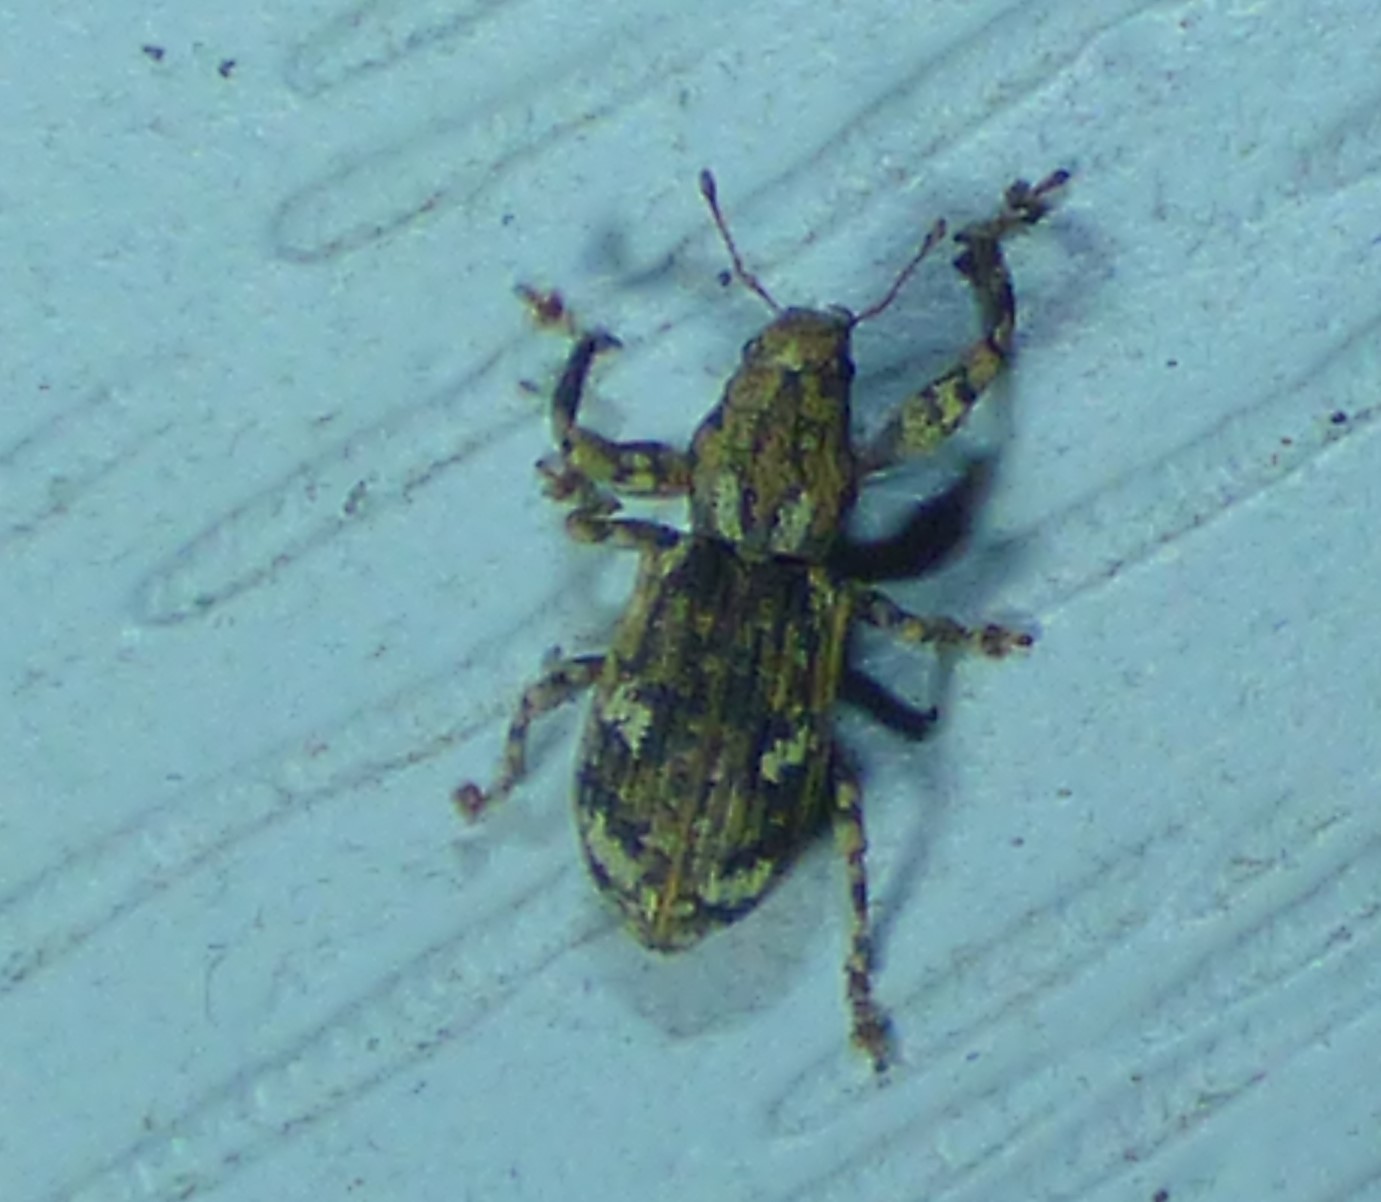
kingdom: Animalia
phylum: Arthropoda
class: Insecta
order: Coleoptera
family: Curculionidae
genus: Pandeleteius
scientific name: Pandeleteius hilaris
